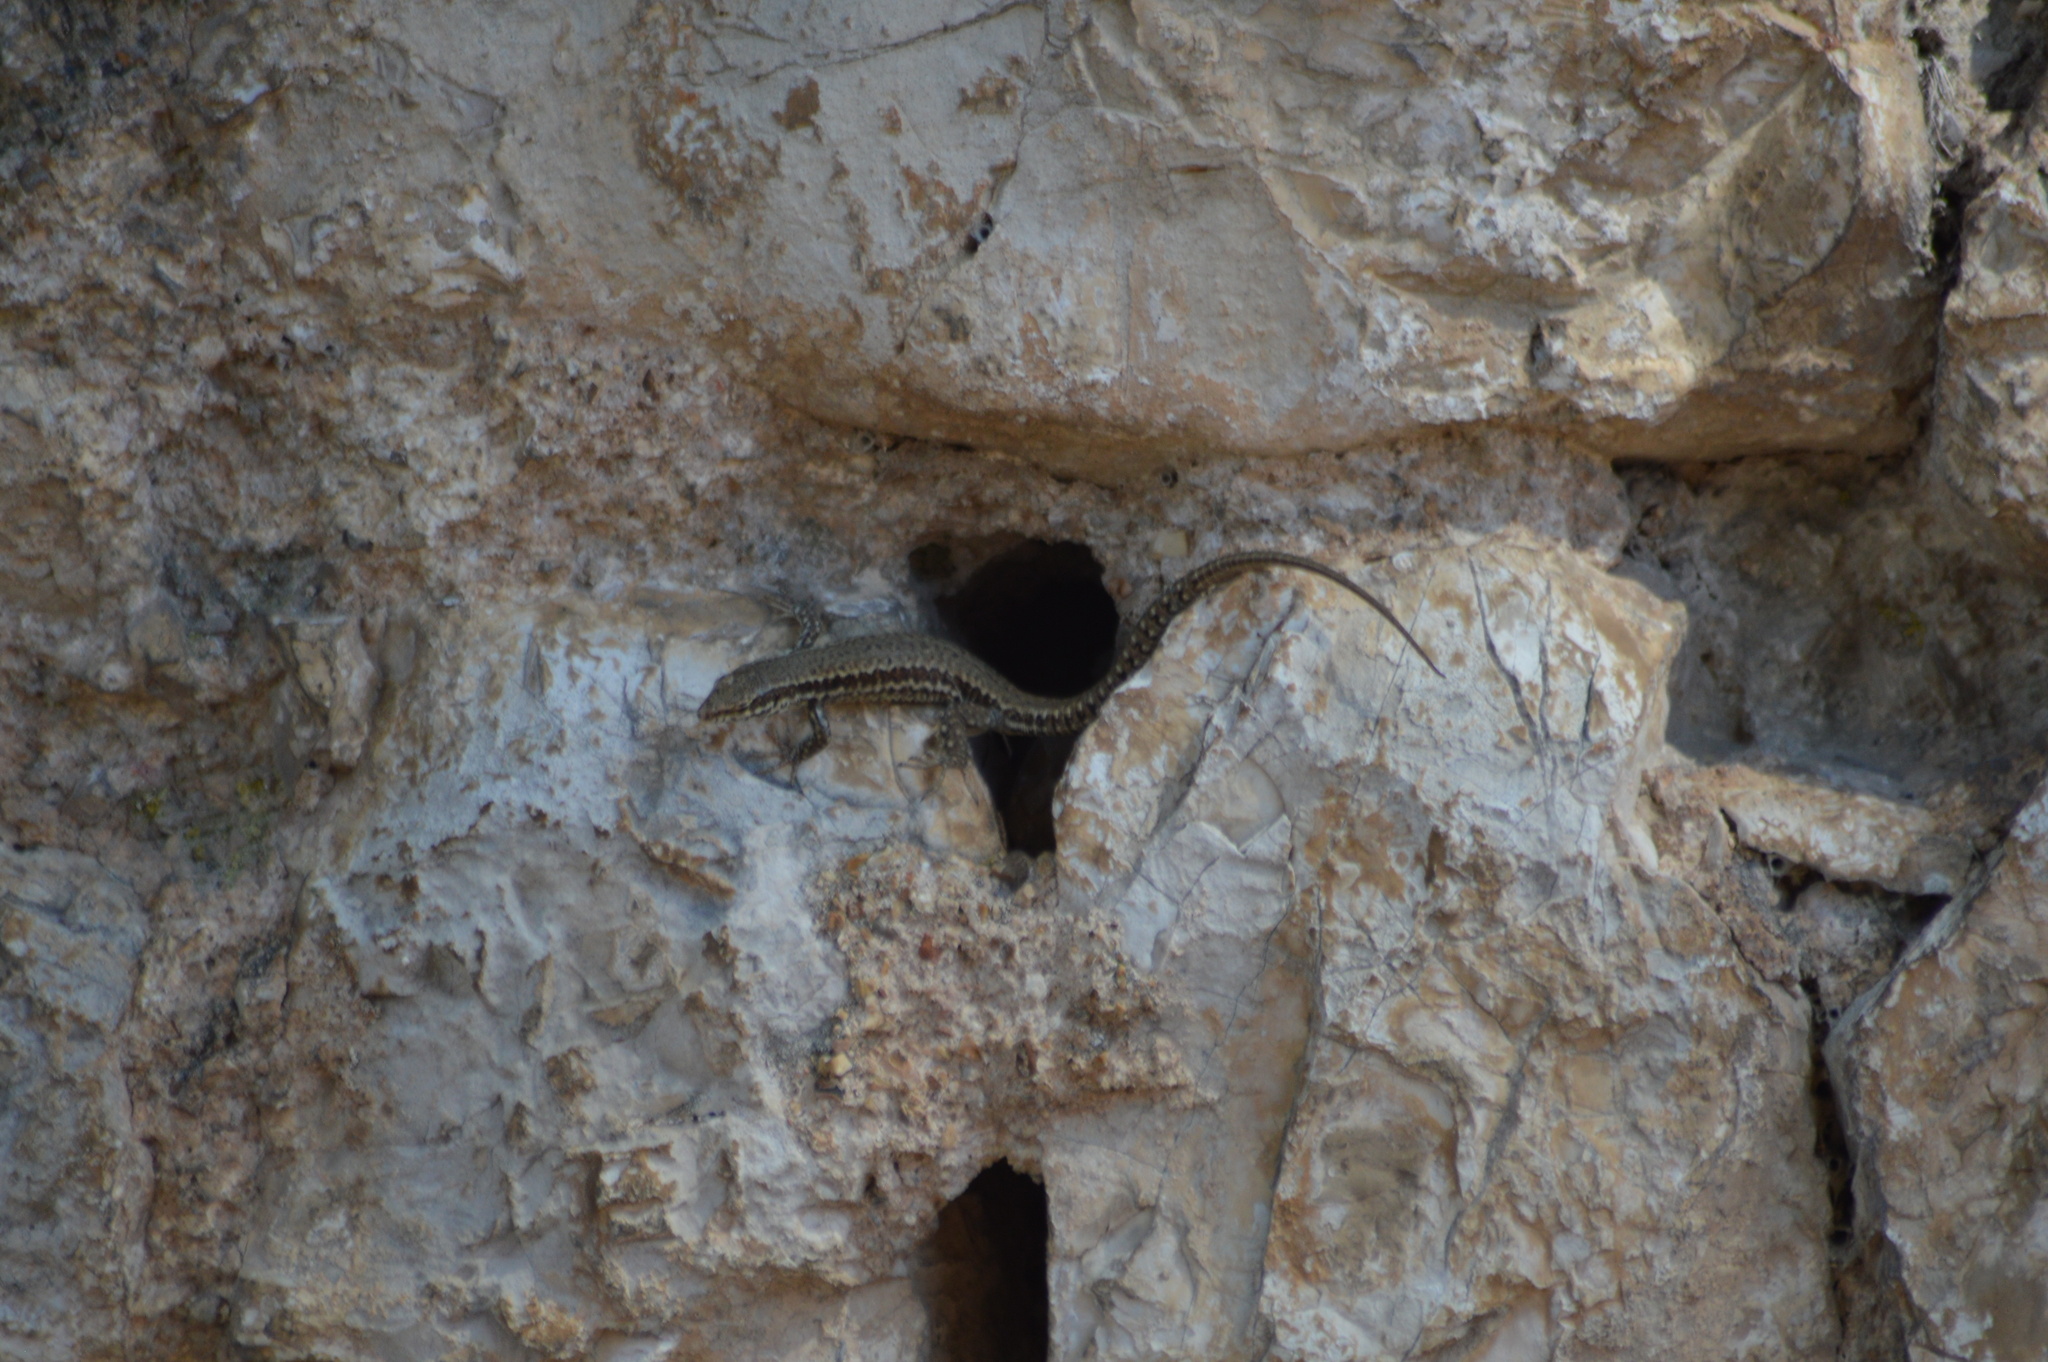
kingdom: Animalia
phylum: Chordata
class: Squamata
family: Lacertidae
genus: Podarcis
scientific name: Podarcis muralis
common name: Common wall lizard
